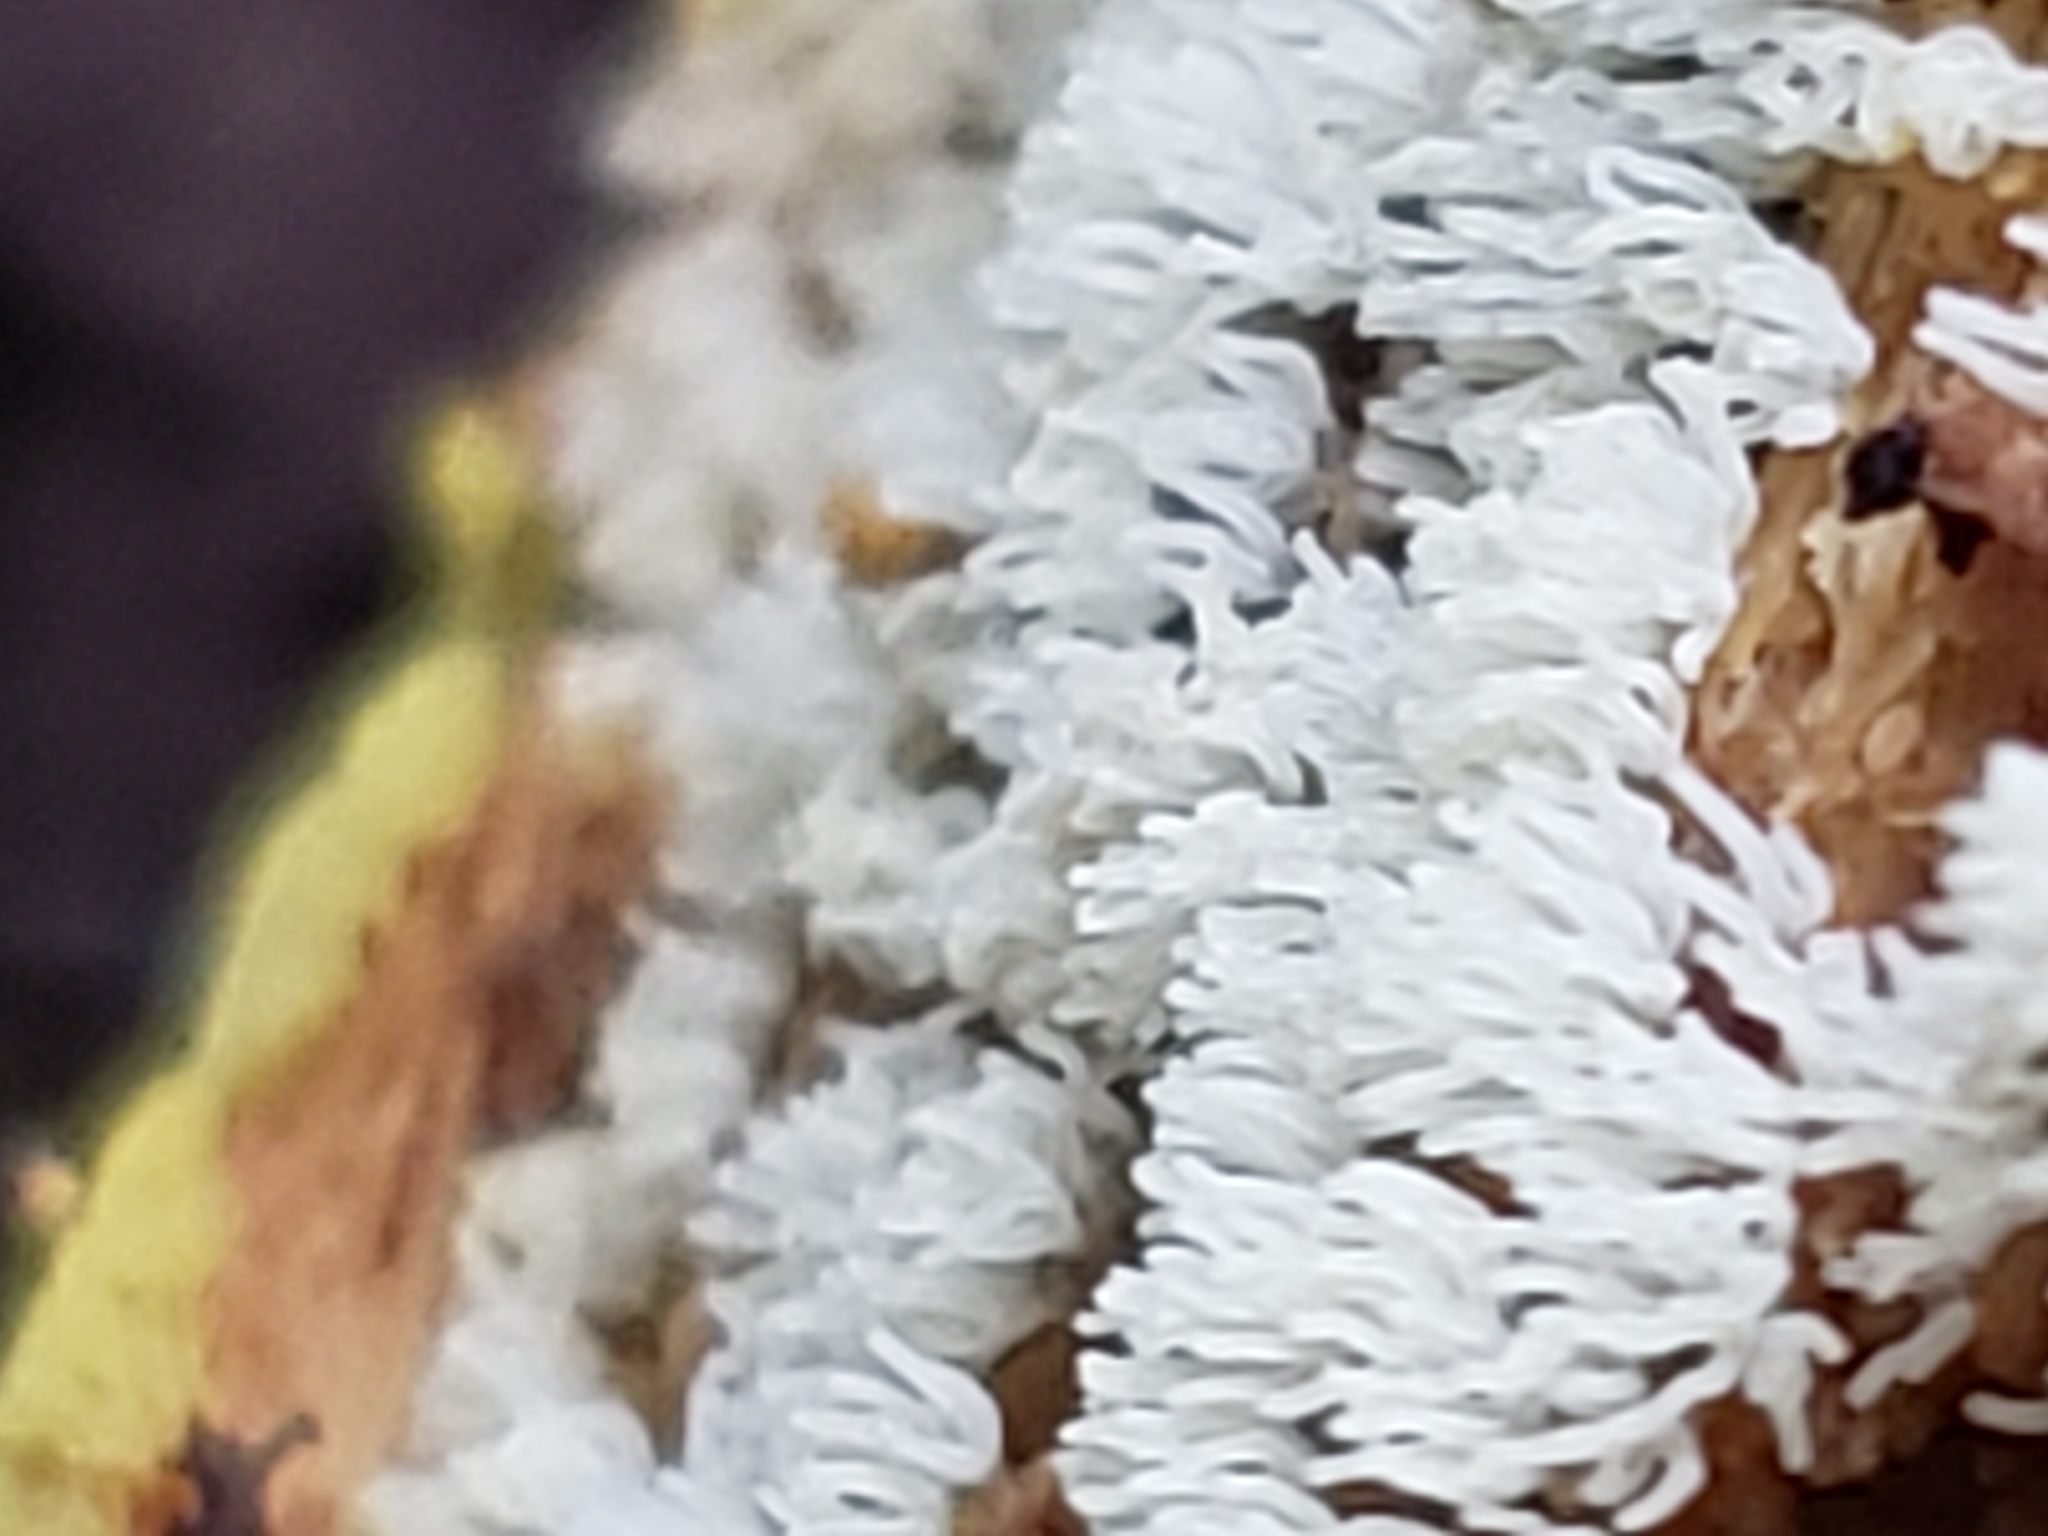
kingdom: Protozoa
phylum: Mycetozoa
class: Protosteliomycetes
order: Ceratiomyxales
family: Ceratiomyxaceae
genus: Ceratiomyxa
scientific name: Ceratiomyxa fruticulosa
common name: Honeycomb coral slime mold
